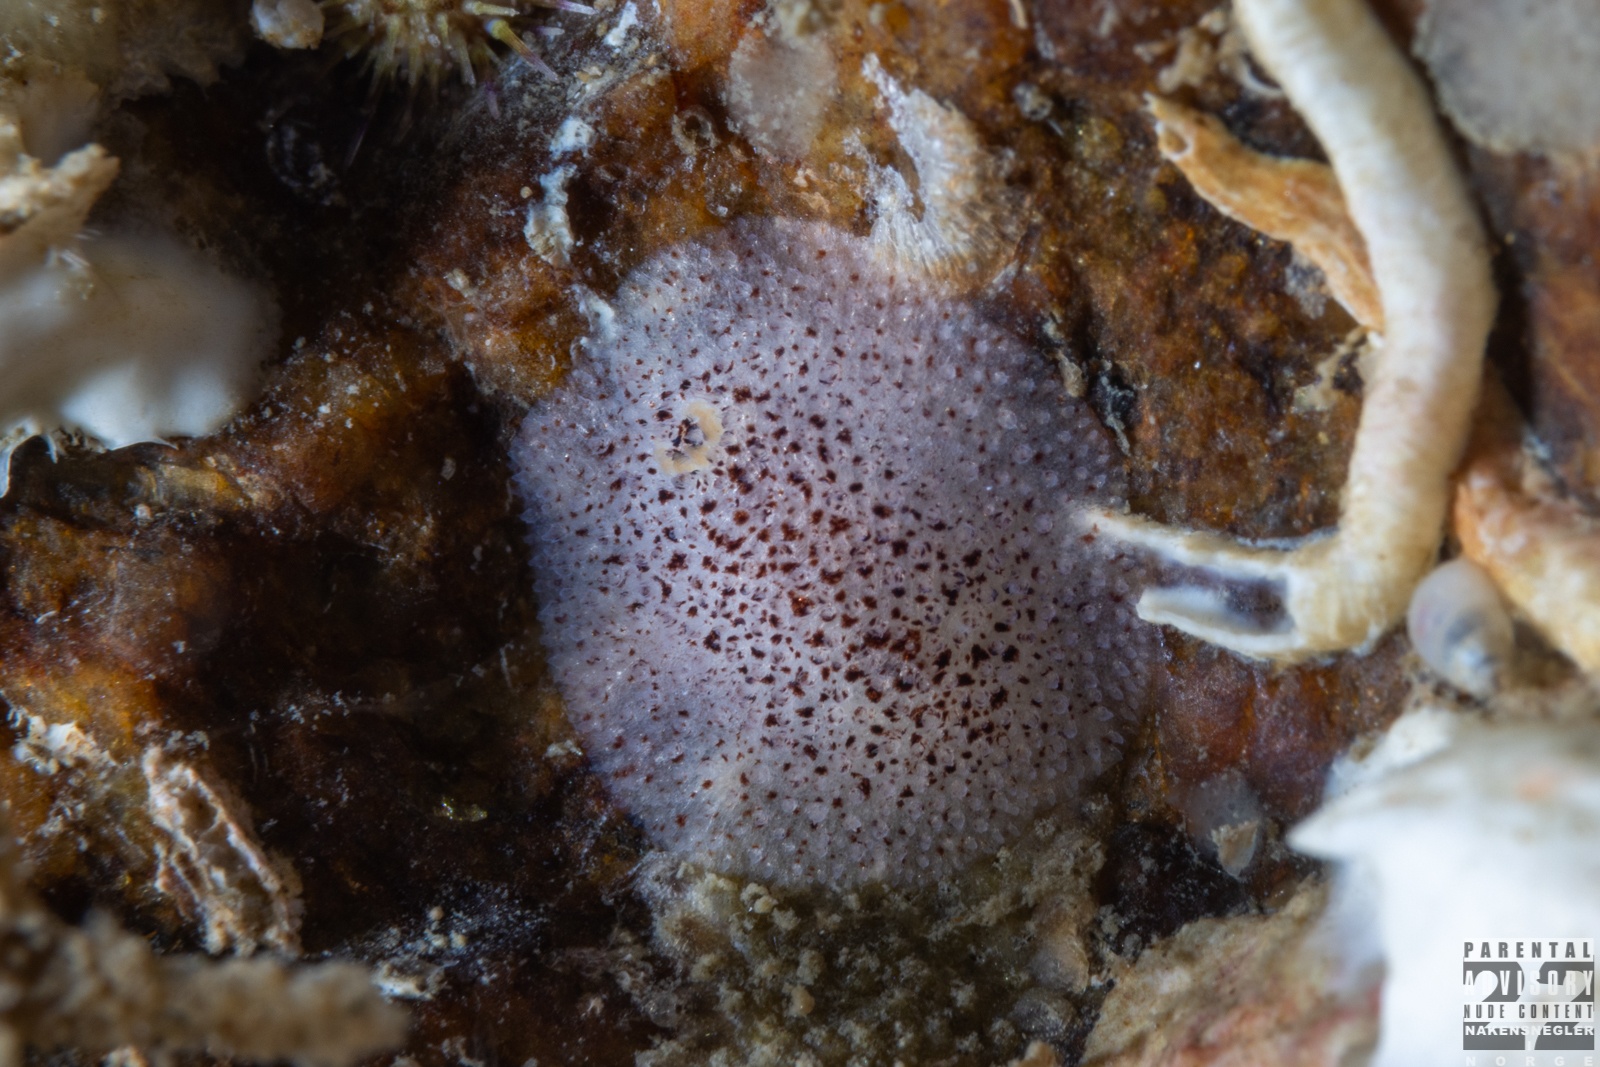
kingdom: Animalia
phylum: Mollusca
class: Gastropoda
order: Nudibranchia
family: Onchidorididae
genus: Atalodoris
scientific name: Atalodoris pusilla
